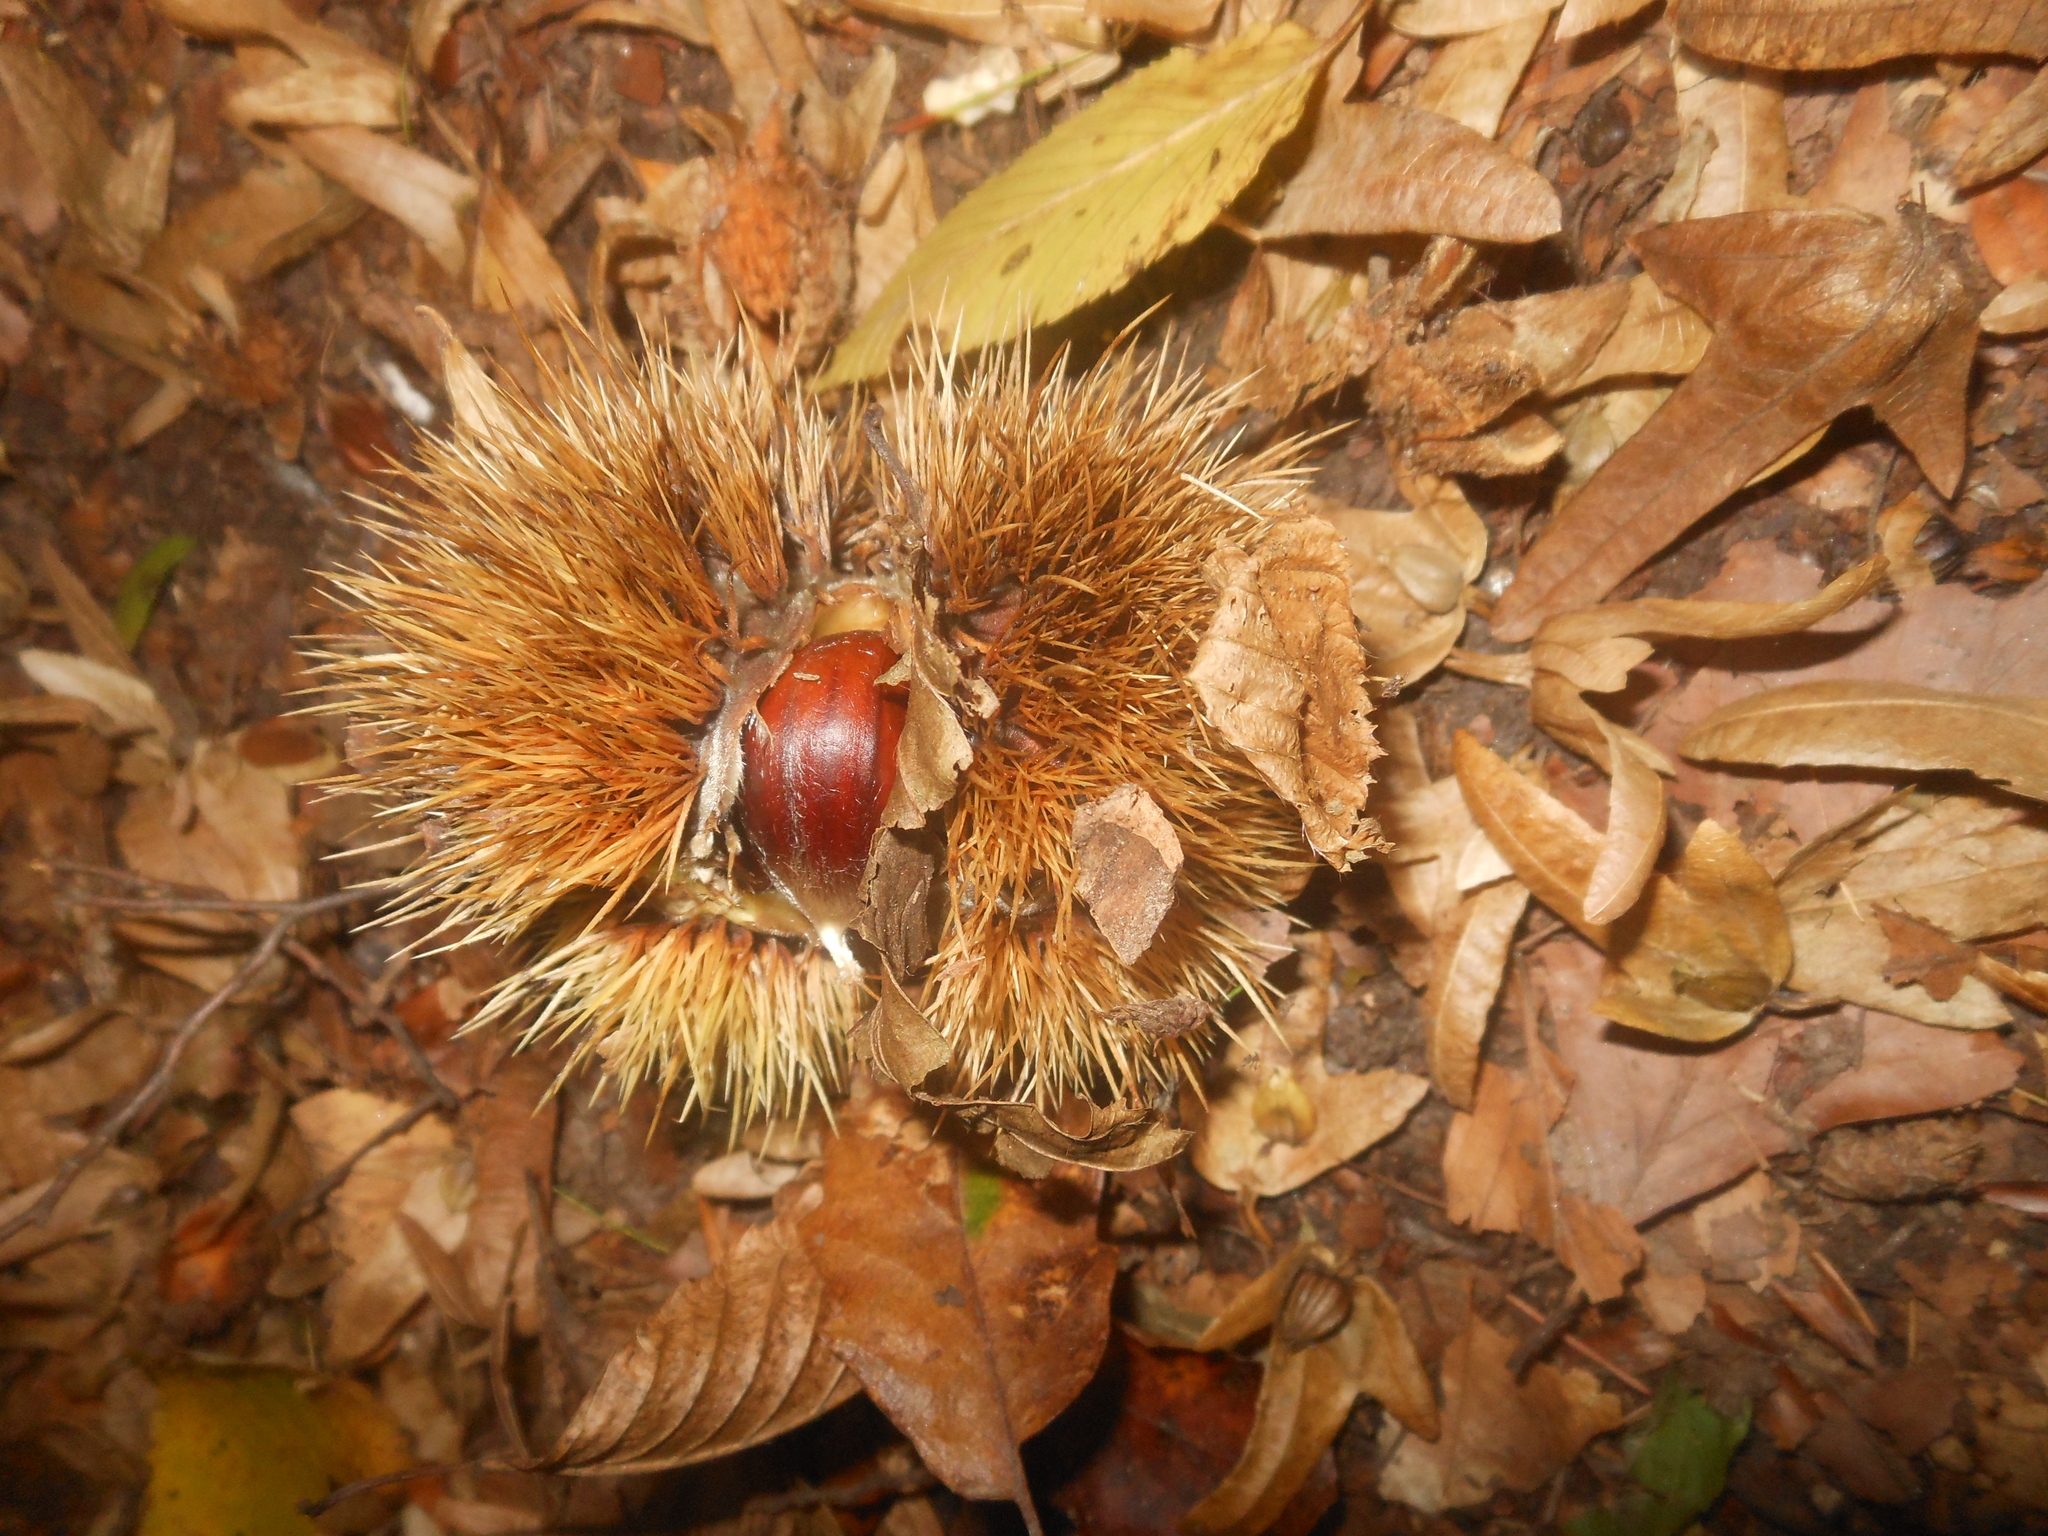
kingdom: Plantae
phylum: Tracheophyta
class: Magnoliopsida
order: Fagales
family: Fagaceae
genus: Castanea
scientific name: Castanea sativa
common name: Sweet chestnut
